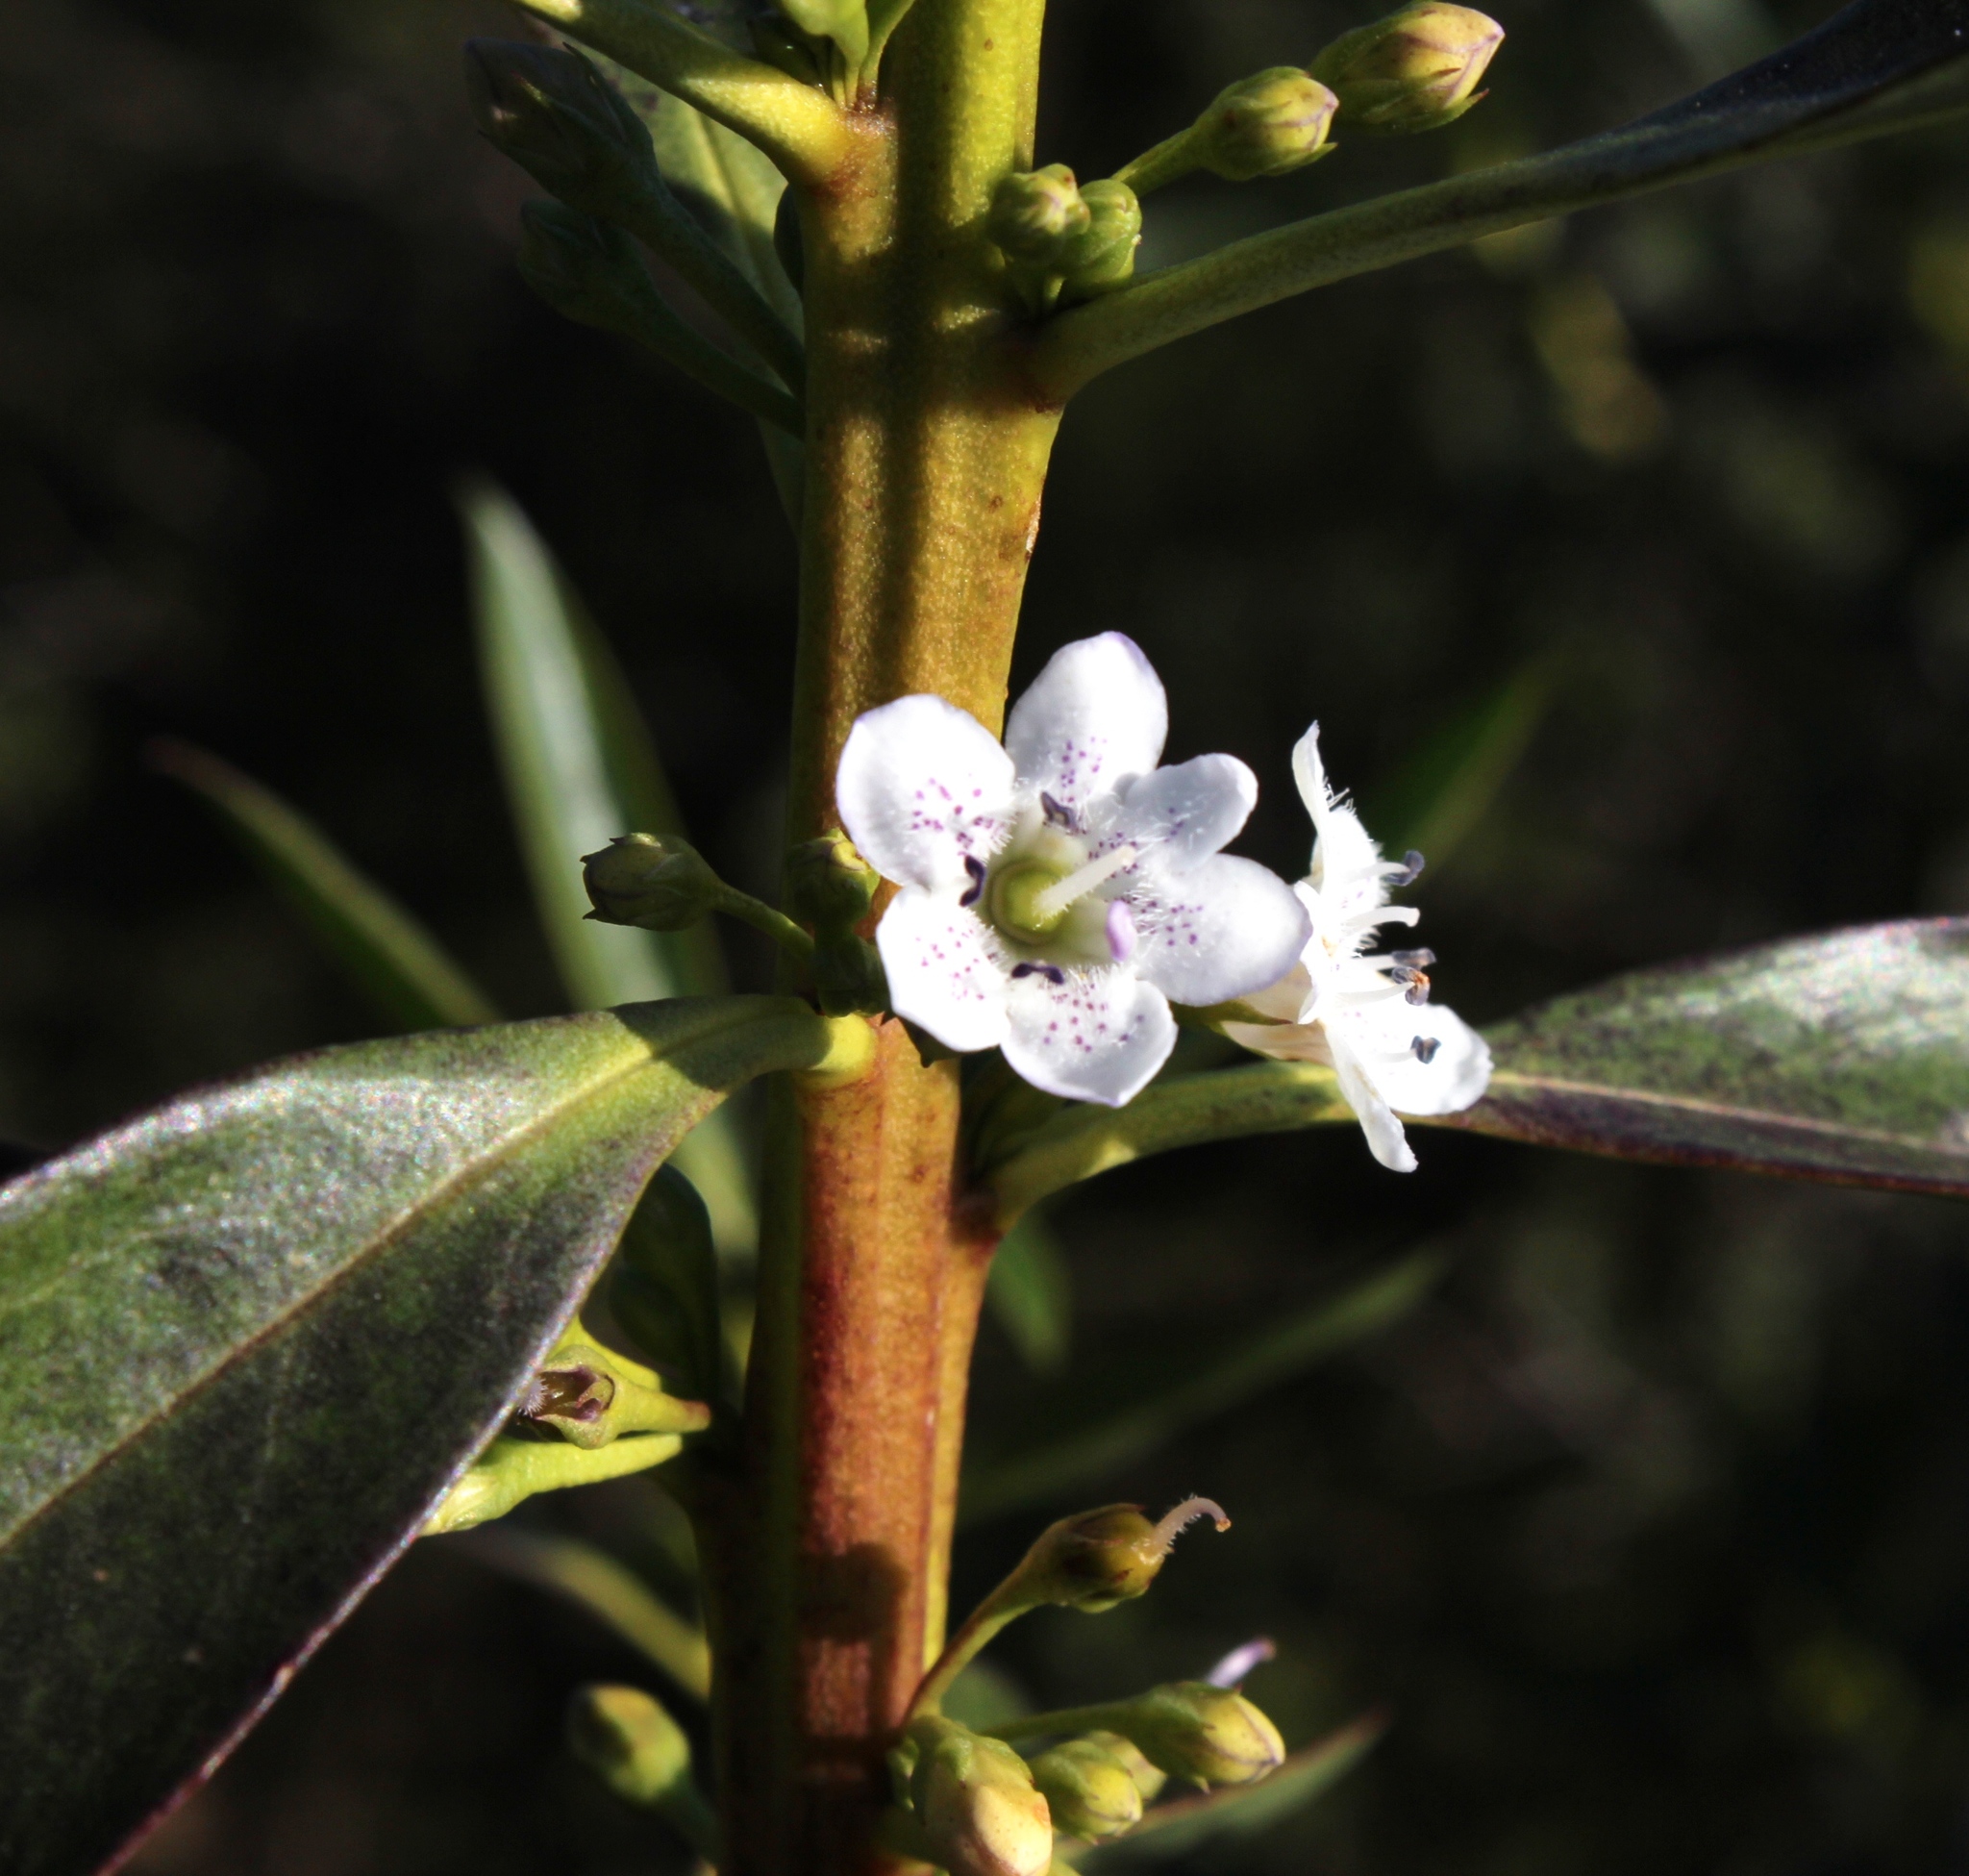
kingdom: Plantae
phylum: Tracheophyta
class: Magnoliopsida
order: Lamiales
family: Scrophulariaceae
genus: Myoporum
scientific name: Myoporum insulare
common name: Common boobialla
